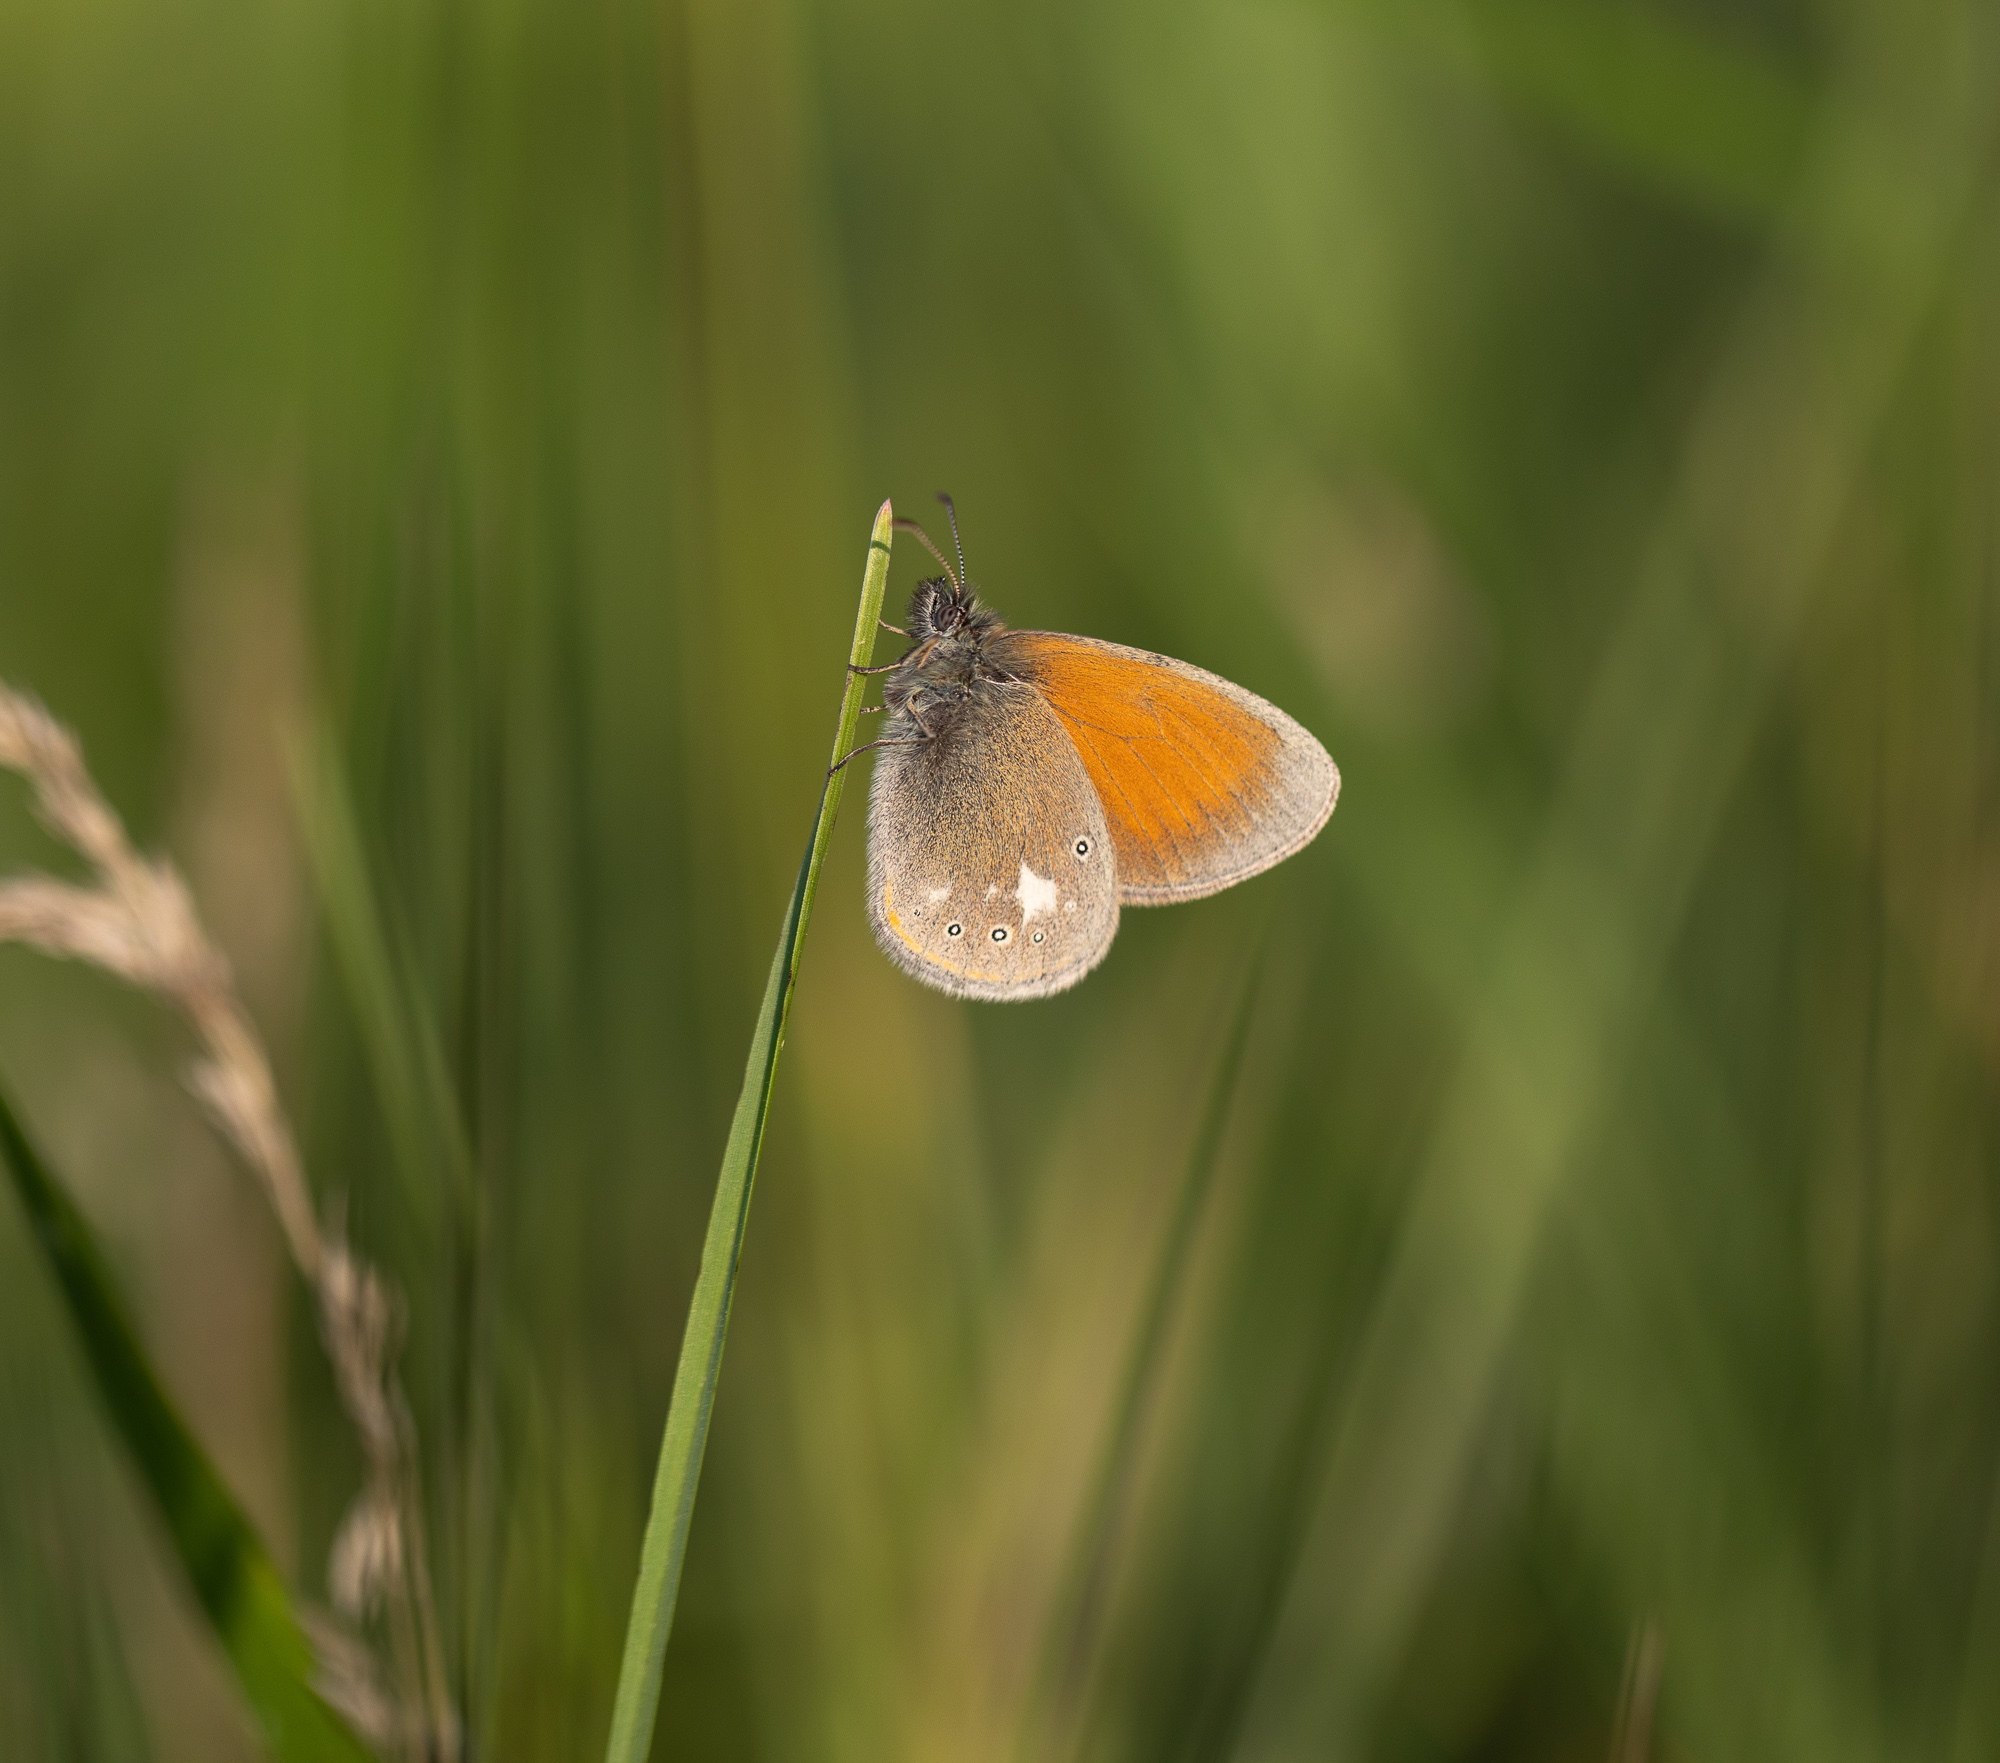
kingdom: Animalia
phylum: Arthropoda
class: Insecta
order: Lepidoptera
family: Nymphalidae
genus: Coenonympha
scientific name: Coenonympha iphis
